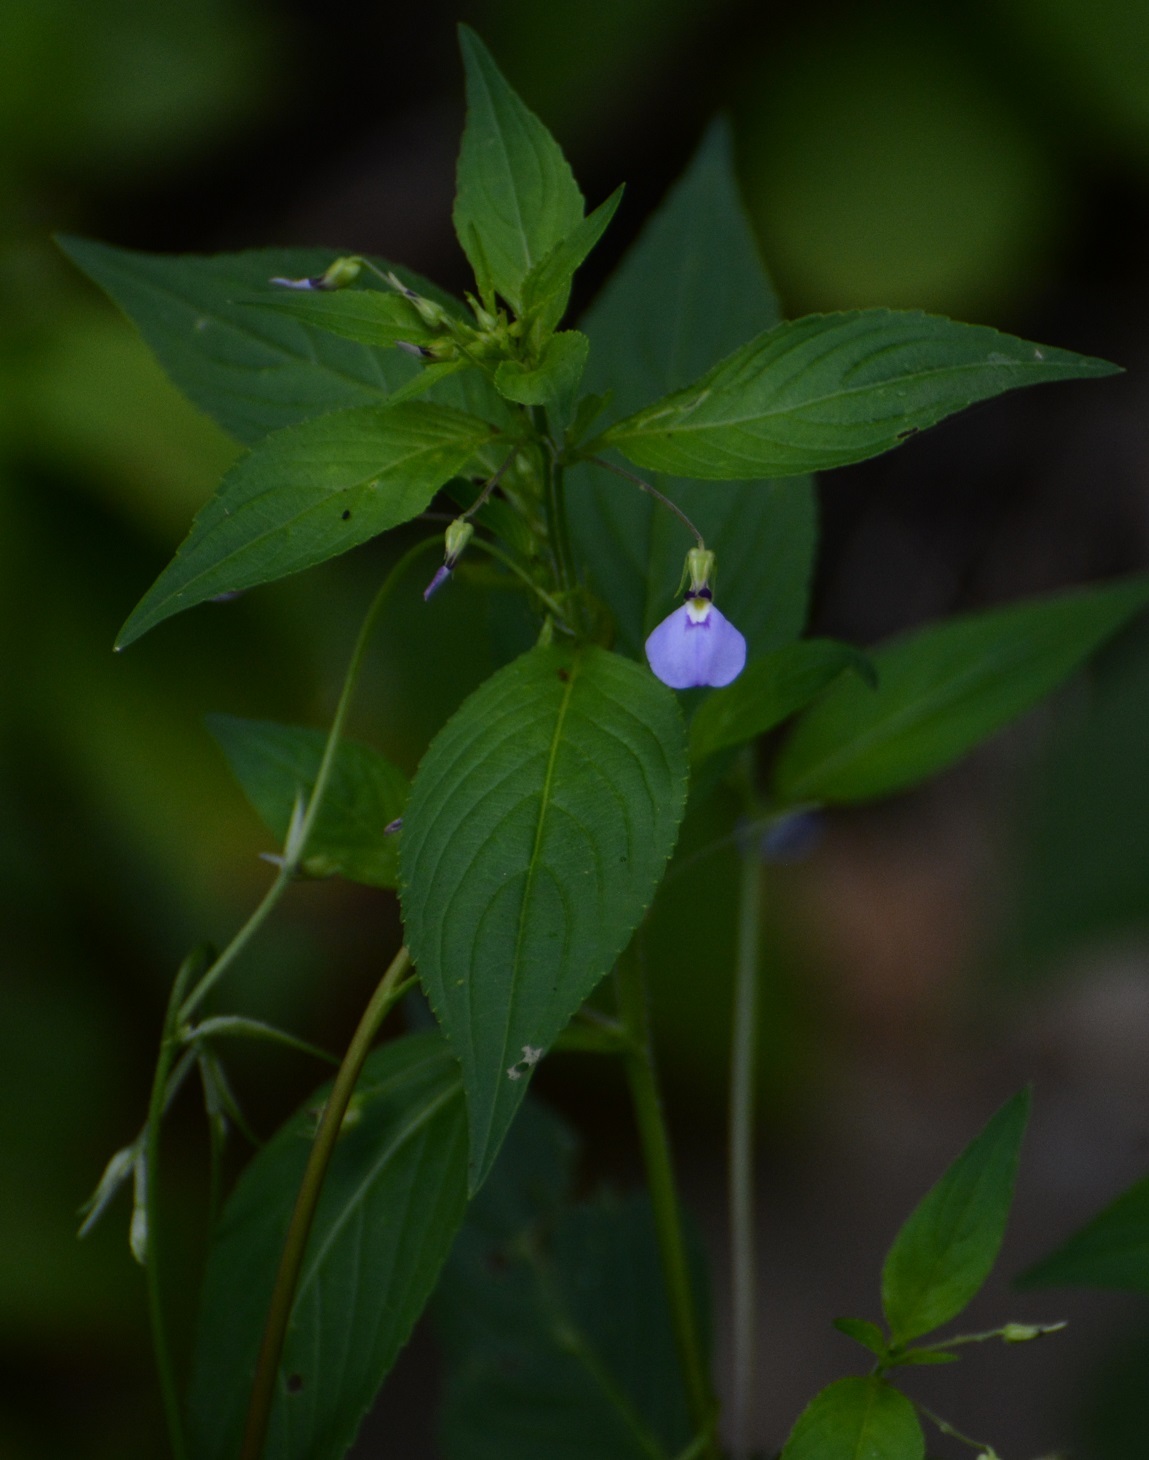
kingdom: Plantae
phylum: Tracheophyta
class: Magnoliopsida
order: Malpighiales
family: Violaceae
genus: Pombalia
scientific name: Pombalia glabra
